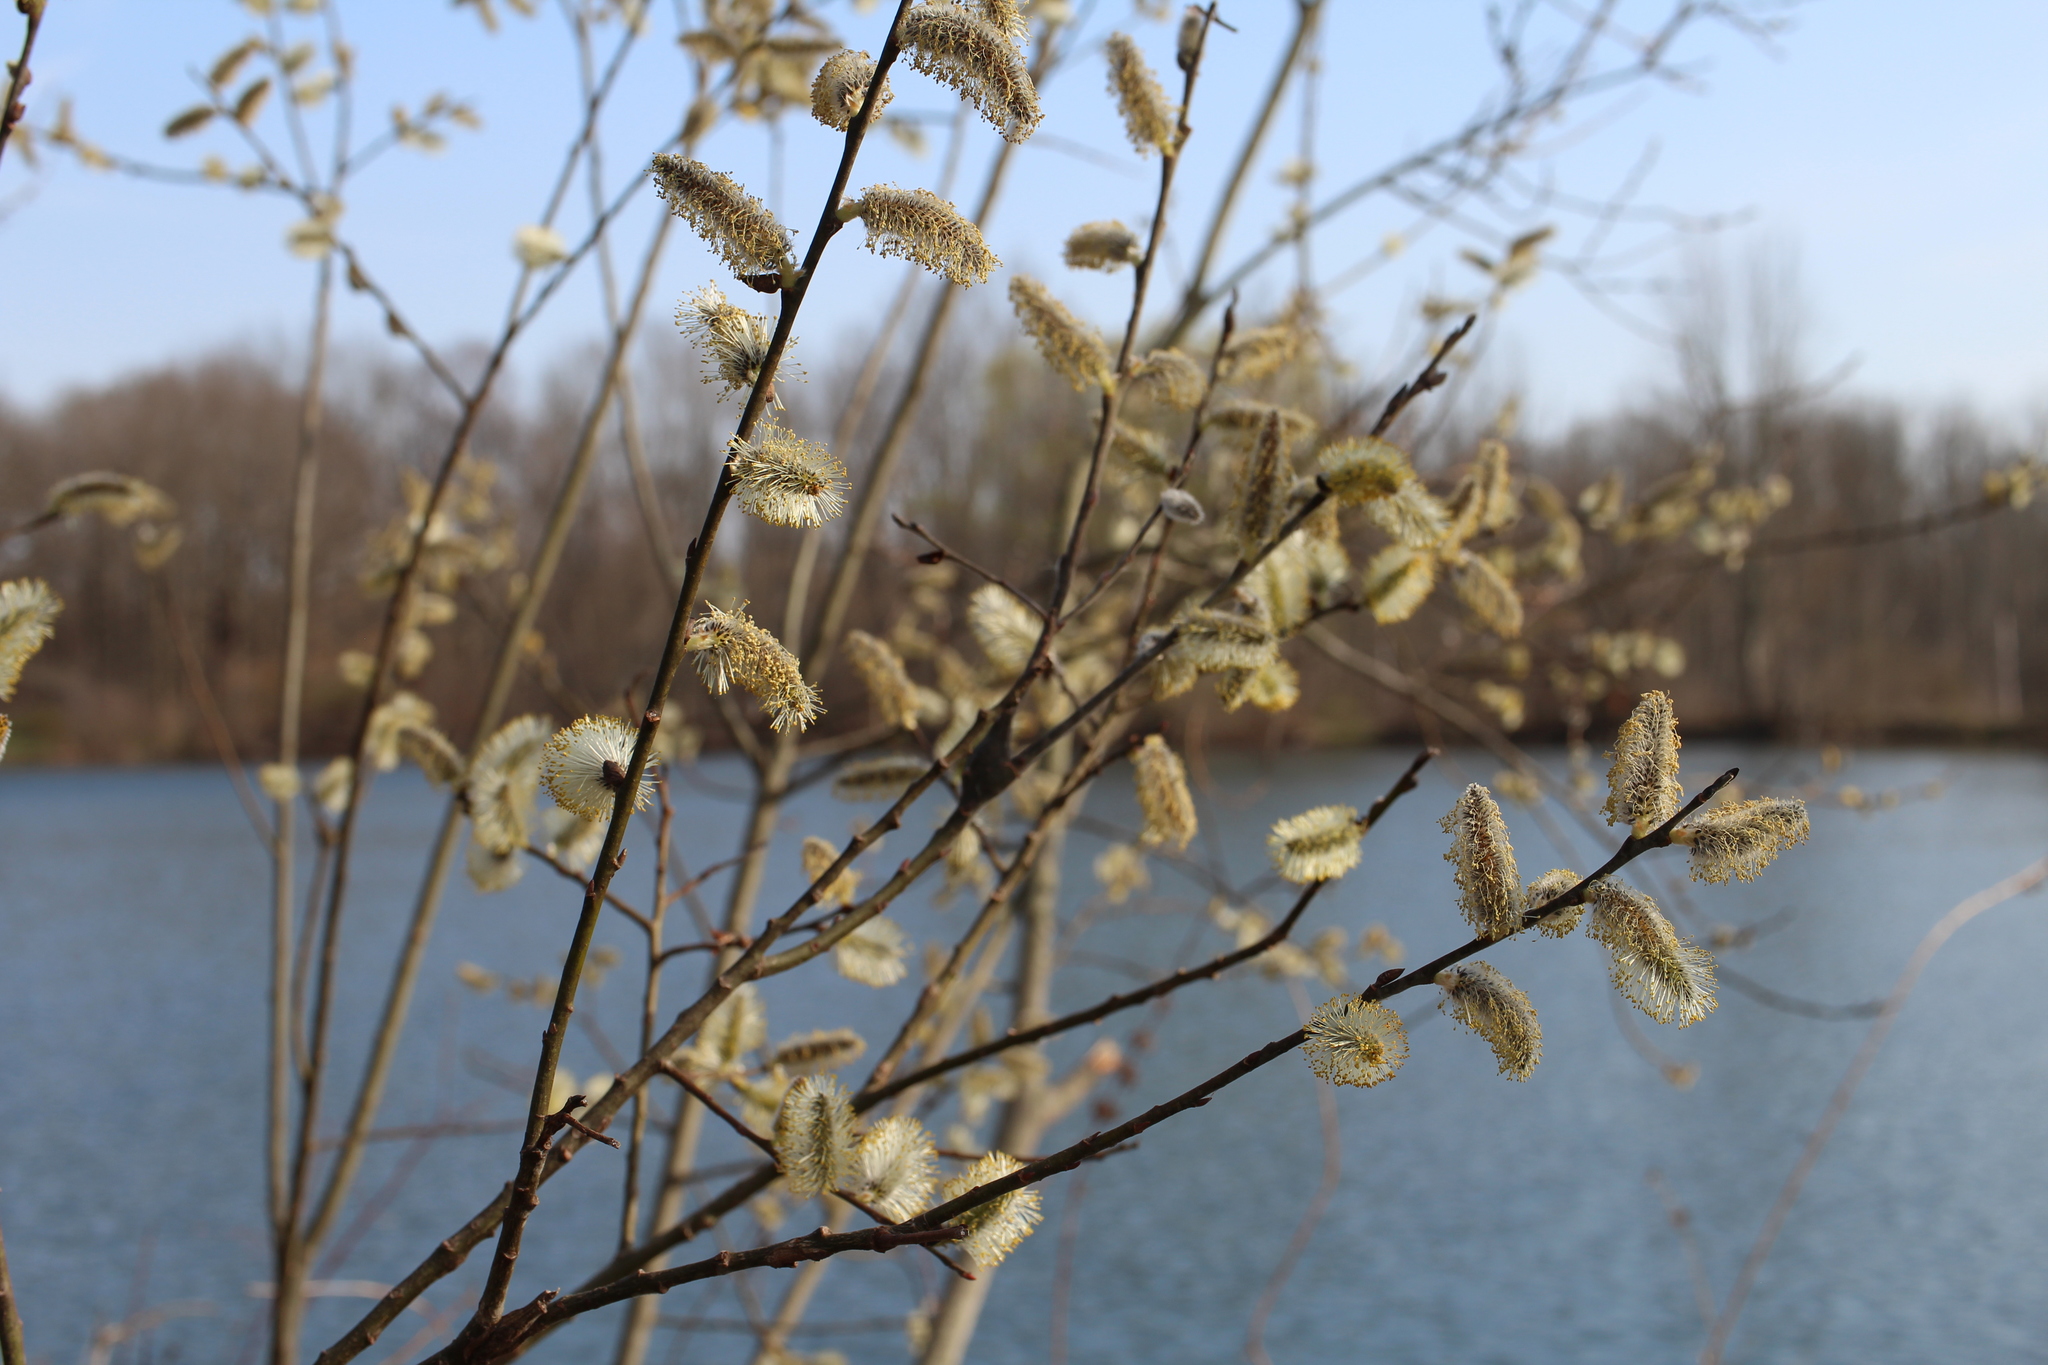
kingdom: Plantae
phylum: Tracheophyta
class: Magnoliopsida
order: Malpighiales
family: Salicaceae
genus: Salix
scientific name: Salix discolor
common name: Glaucous willow
